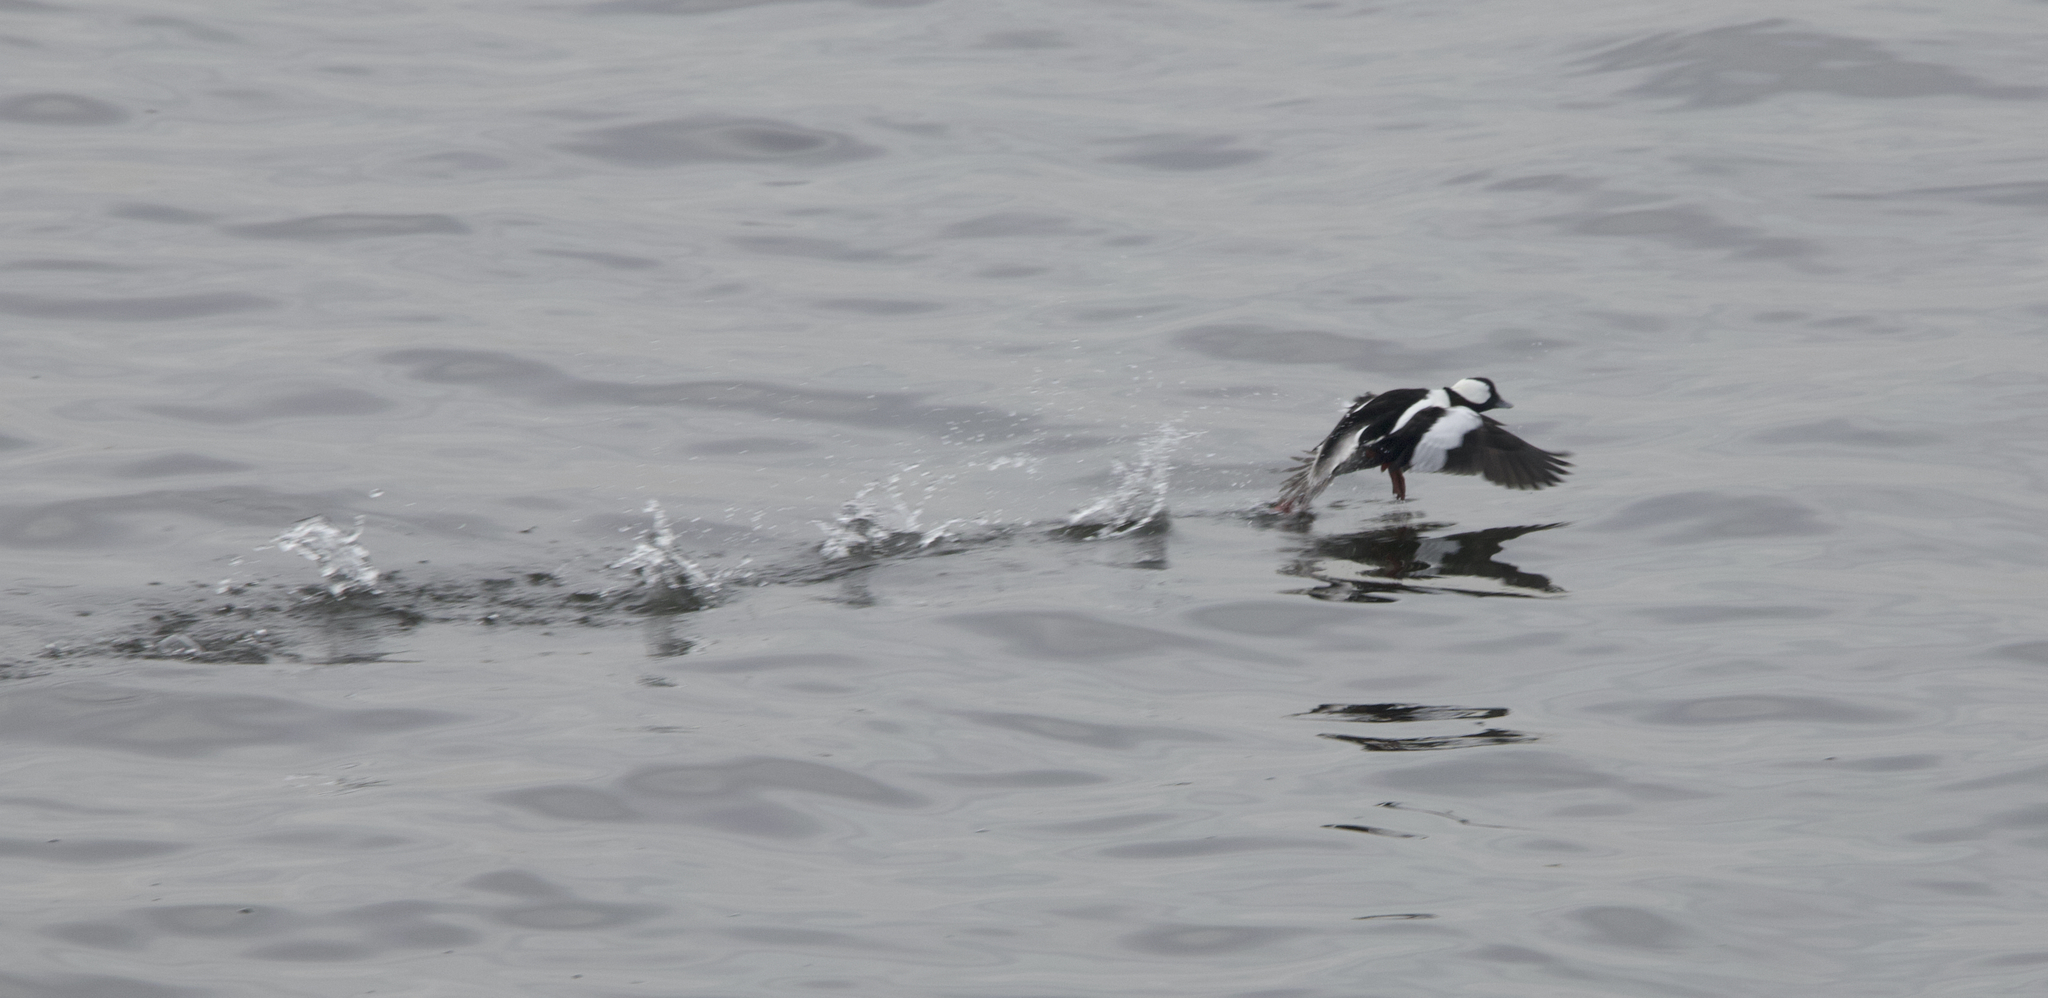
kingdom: Animalia
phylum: Chordata
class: Aves
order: Anseriformes
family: Anatidae
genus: Bucephala
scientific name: Bucephala albeola
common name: Bufflehead
